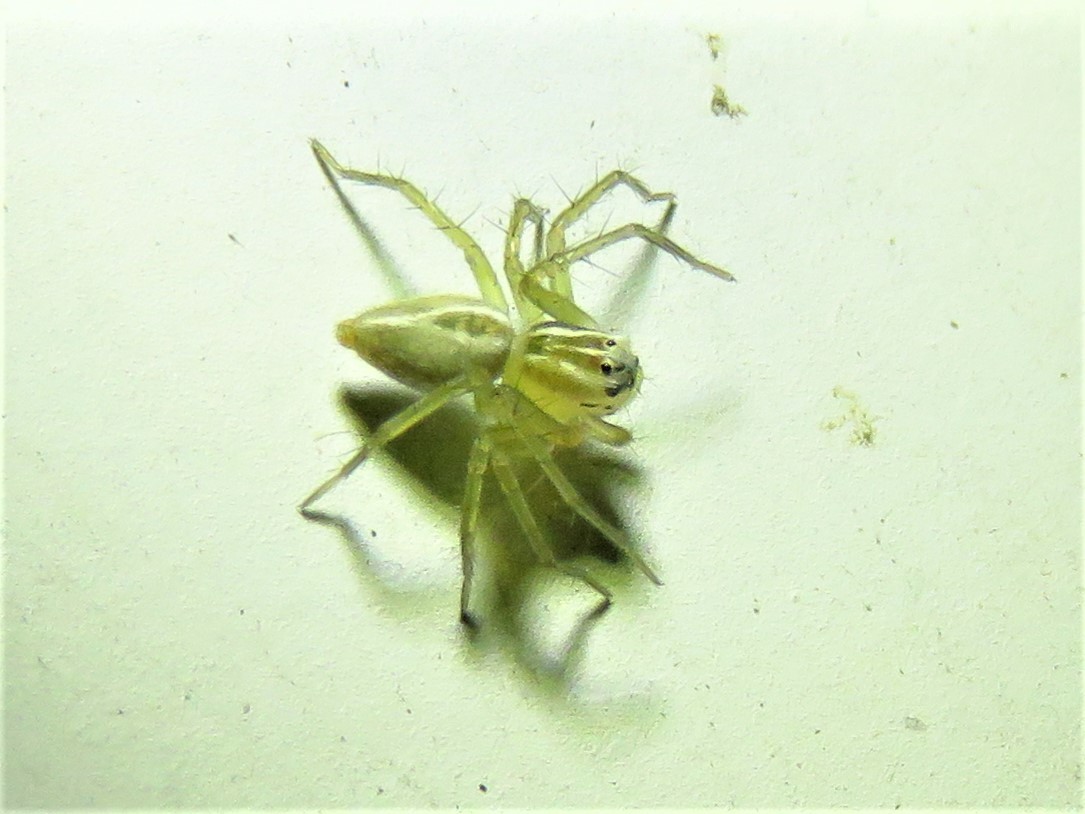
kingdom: Animalia
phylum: Arthropoda
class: Arachnida
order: Araneae
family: Oxyopidae
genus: Oxyopes
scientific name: Oxyopes salticus
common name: Lynx spiders
